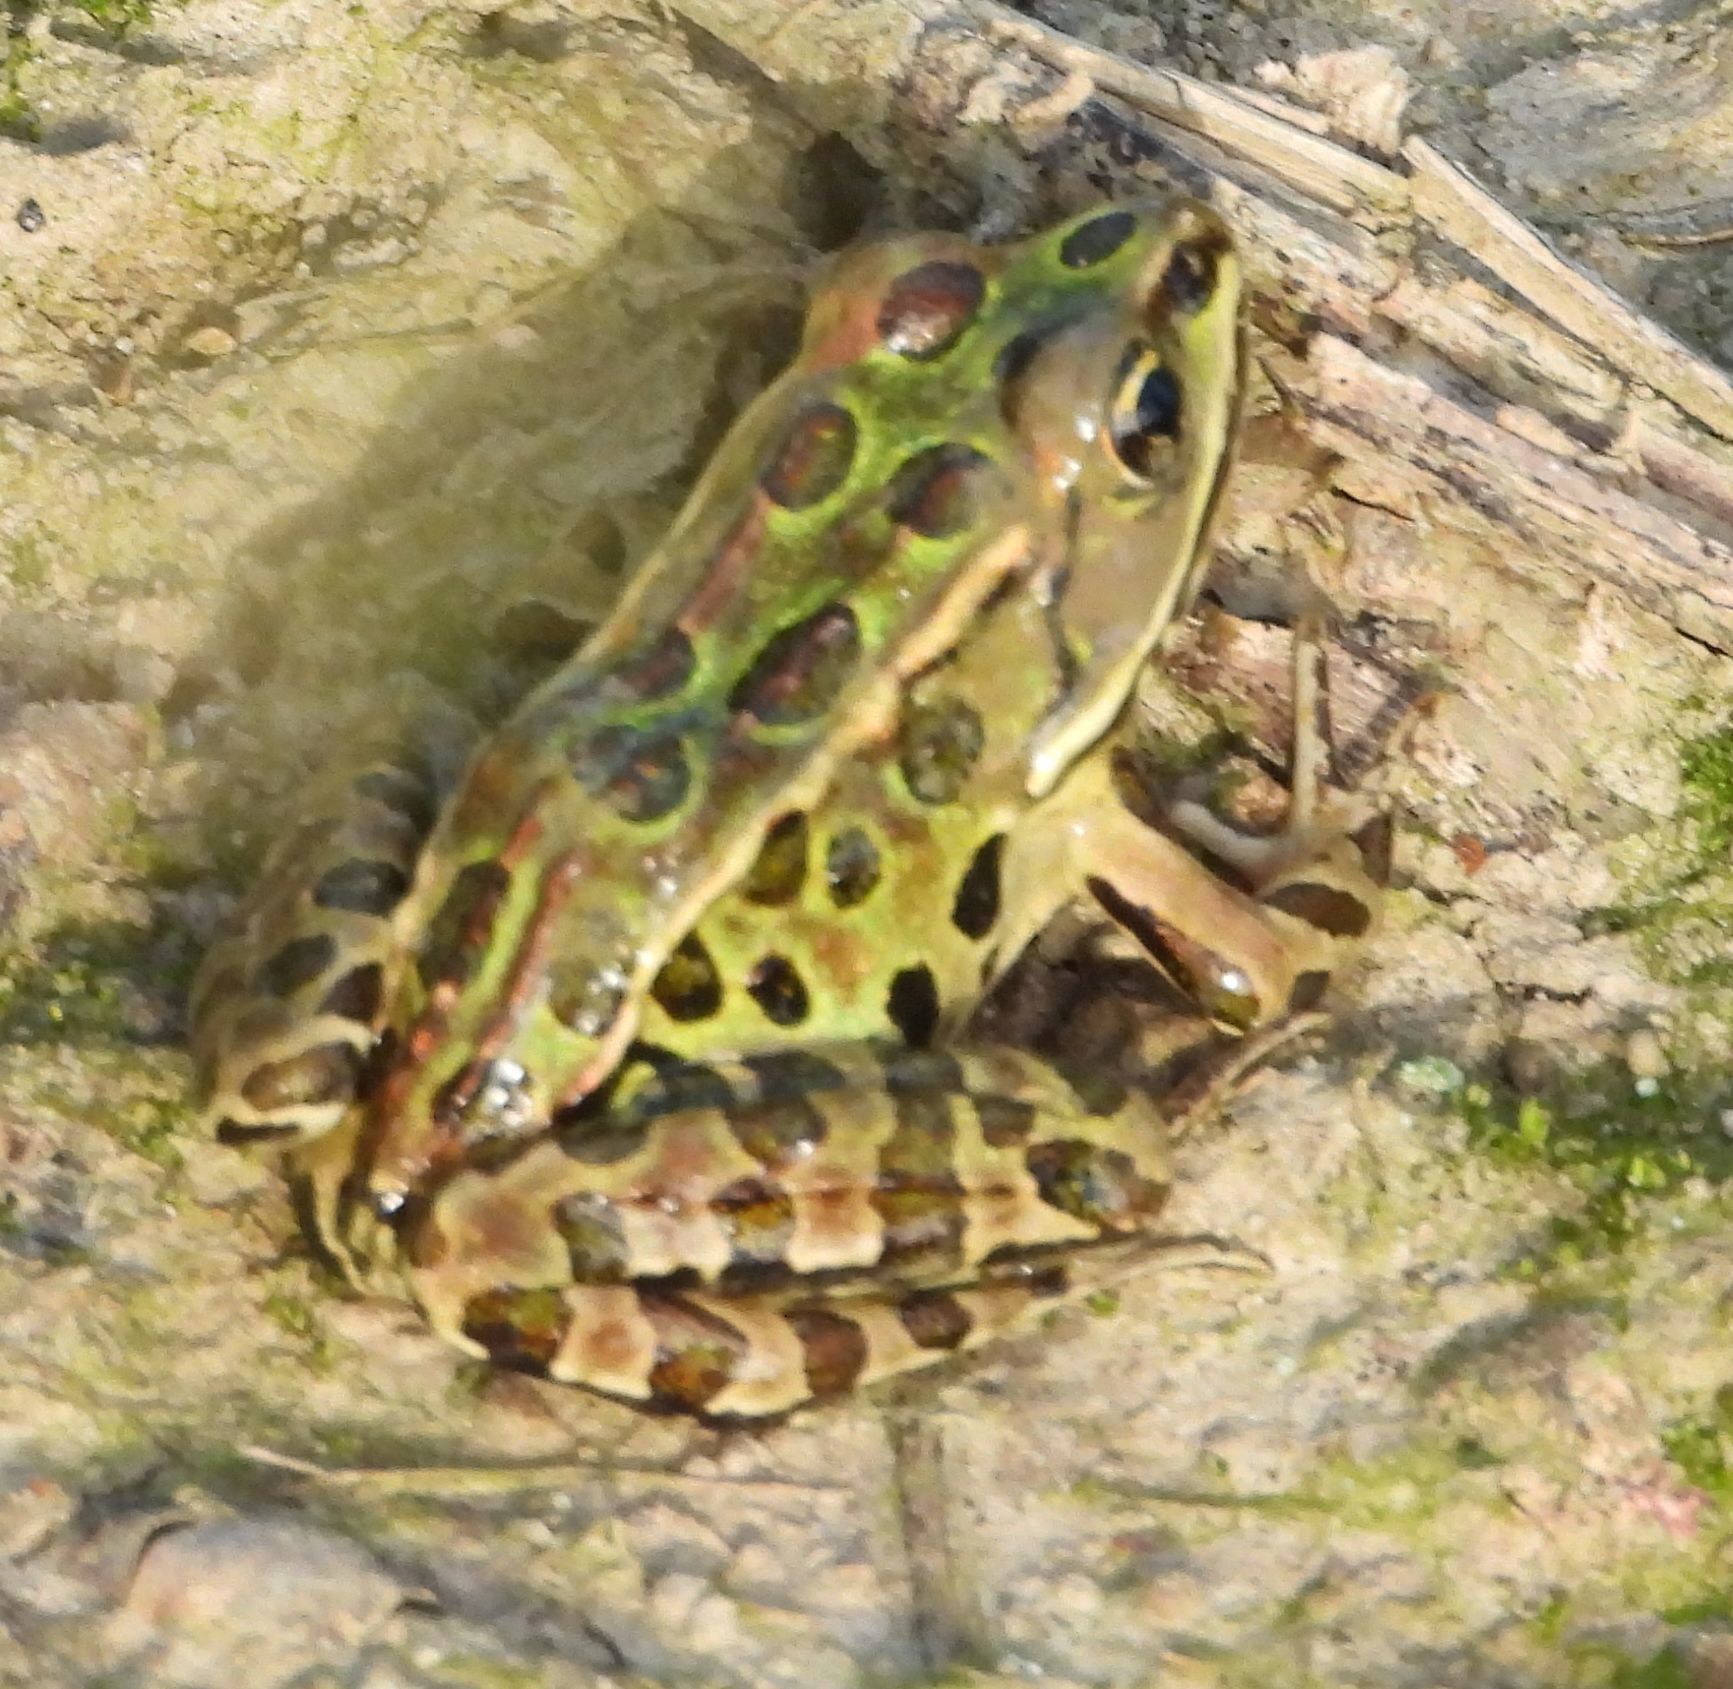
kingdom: Animalia
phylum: Chordata
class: Amphibia
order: Anura
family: Ranidae
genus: Lithobates
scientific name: Lithobates pipiens
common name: Northern leopard frog
